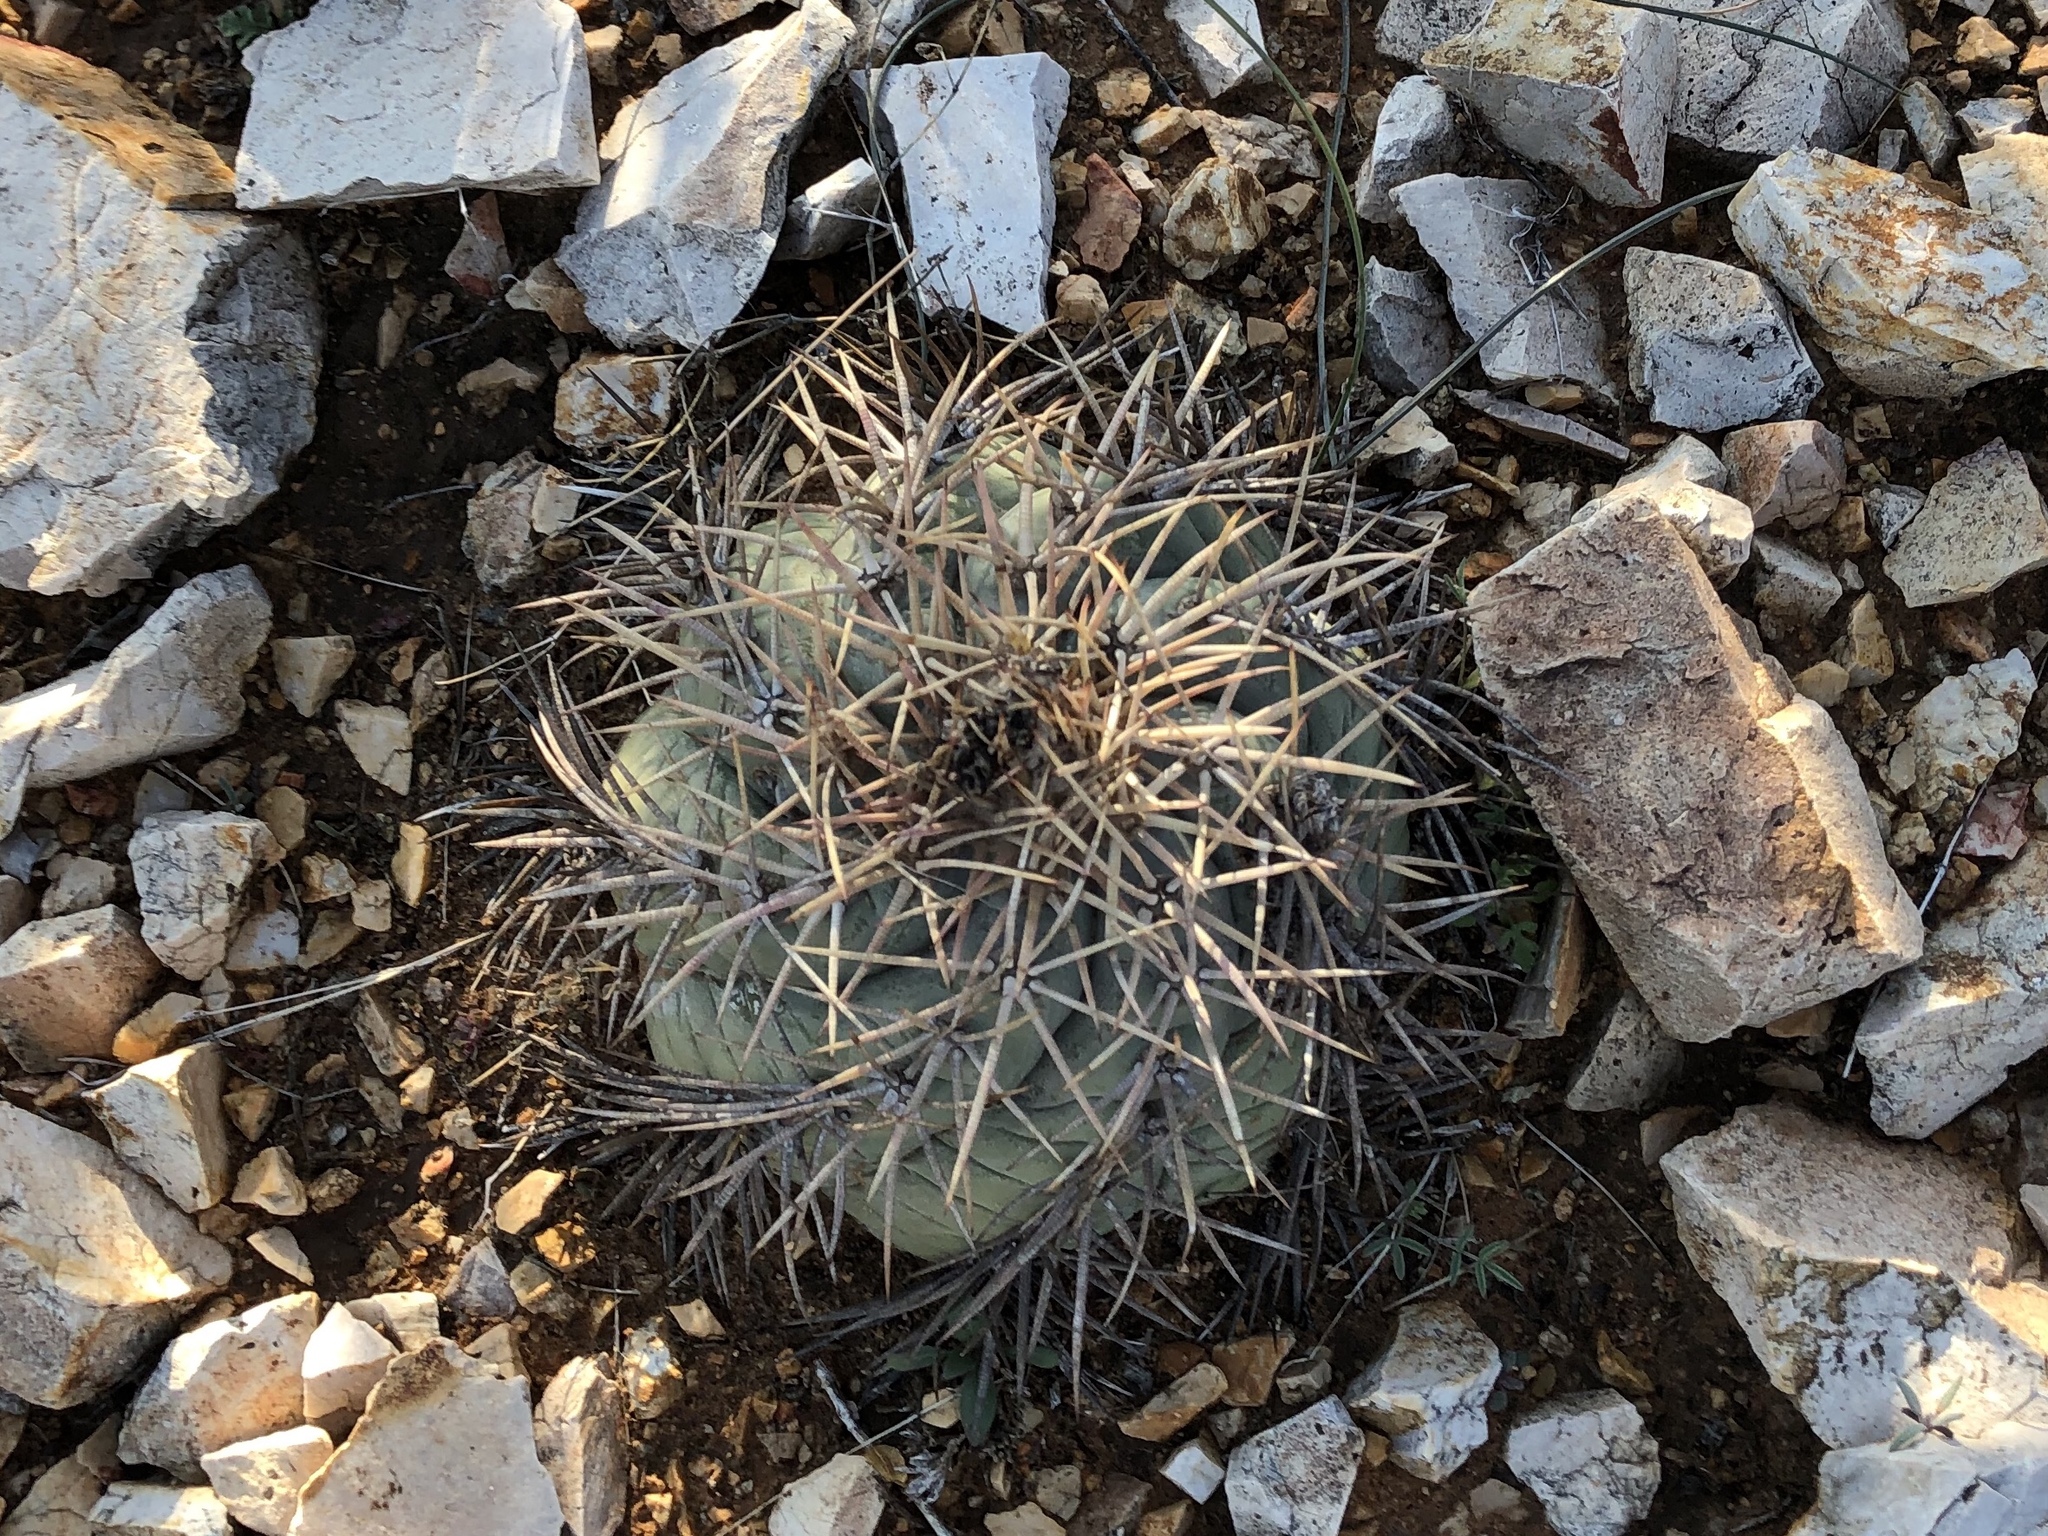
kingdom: Plantae
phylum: Tracheophyta
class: Magnoliopsida
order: Caryophyllales
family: Cactaceae
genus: Echinocactus
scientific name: Echinocactus horizonthalonius
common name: Devilshead
